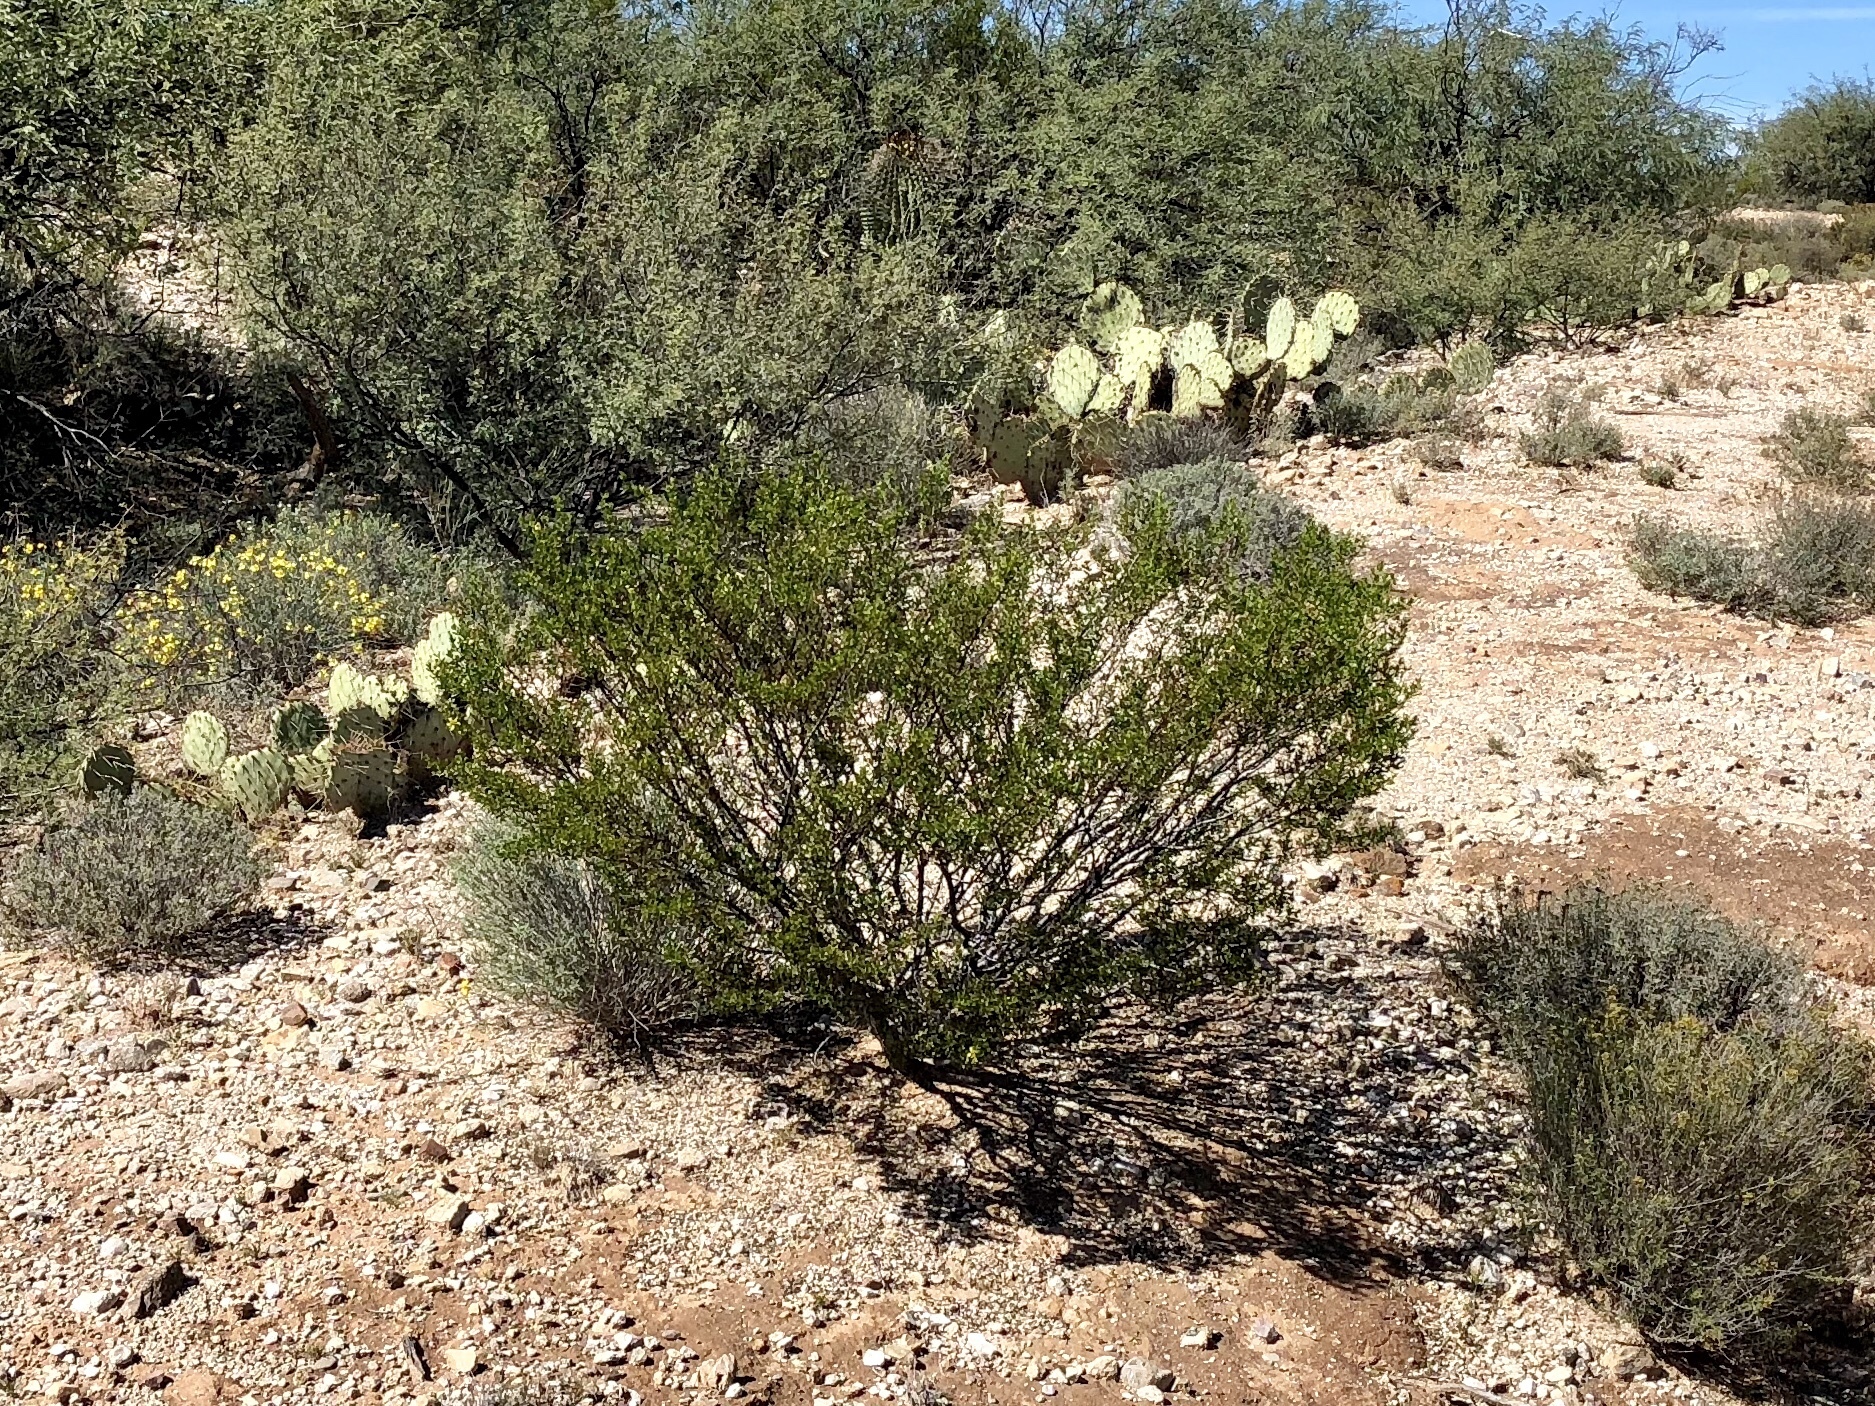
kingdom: Plantae
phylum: Tracheophyta
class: Magnoliopsida
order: Zygophyllales
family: Zygophyllaceae
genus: Larrea
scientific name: Larrea tridentata
